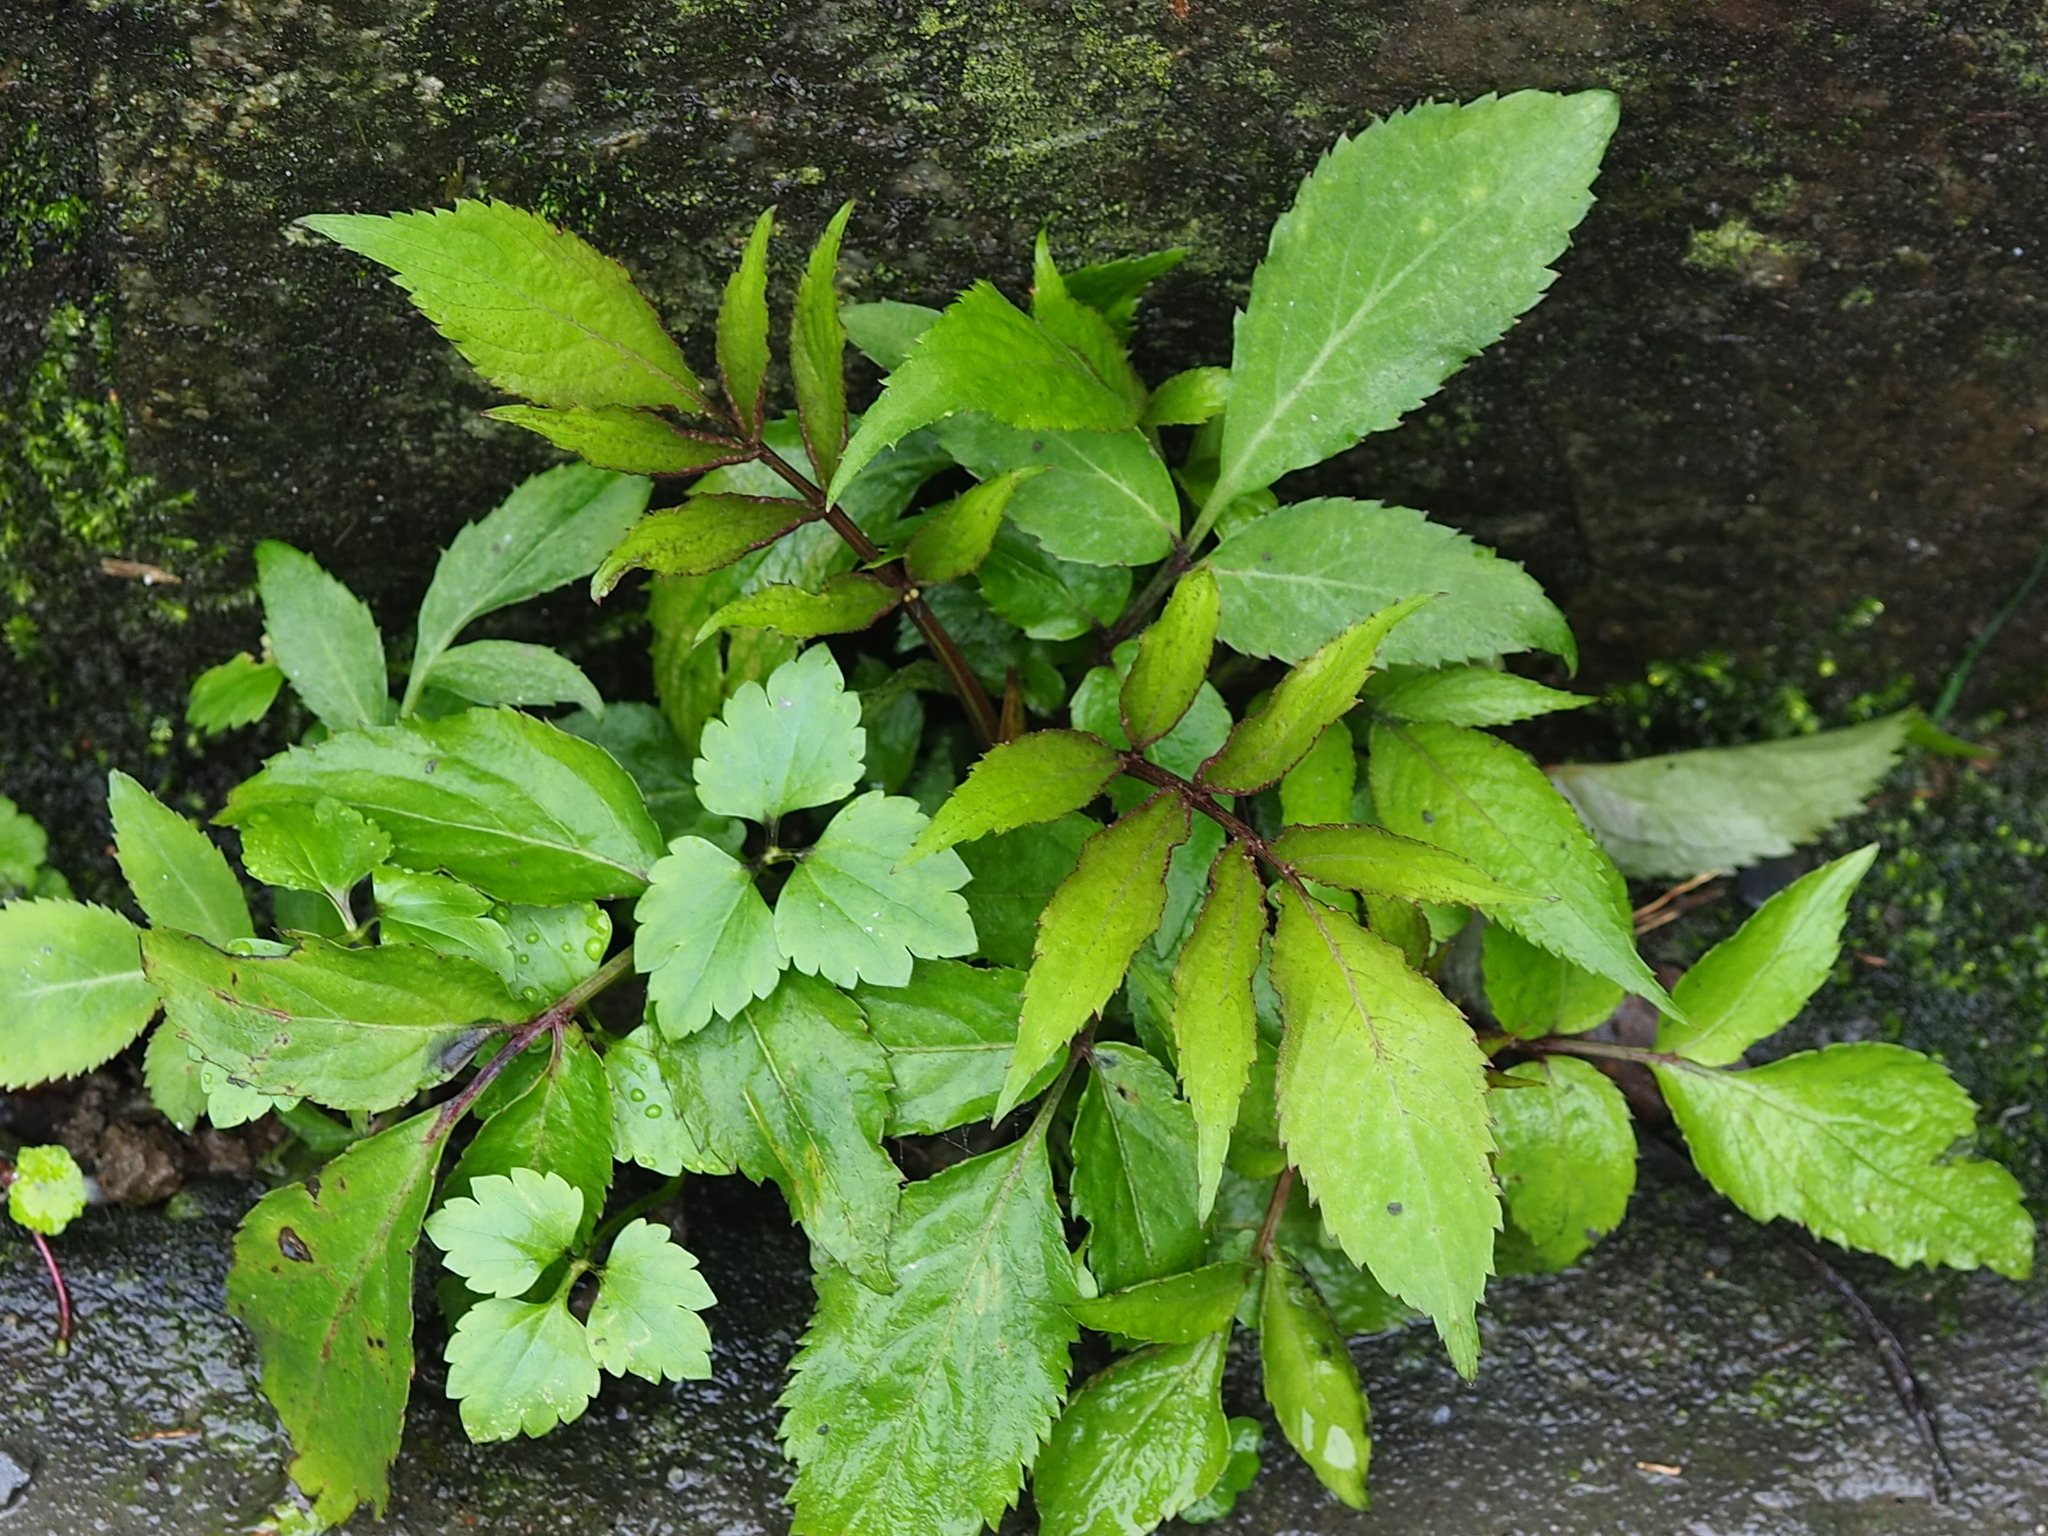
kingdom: Plantae
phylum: Tracheophyta
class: Magnoliopsida
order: Asterales
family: Asteraceae
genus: Bidens
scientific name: Bidens alba
